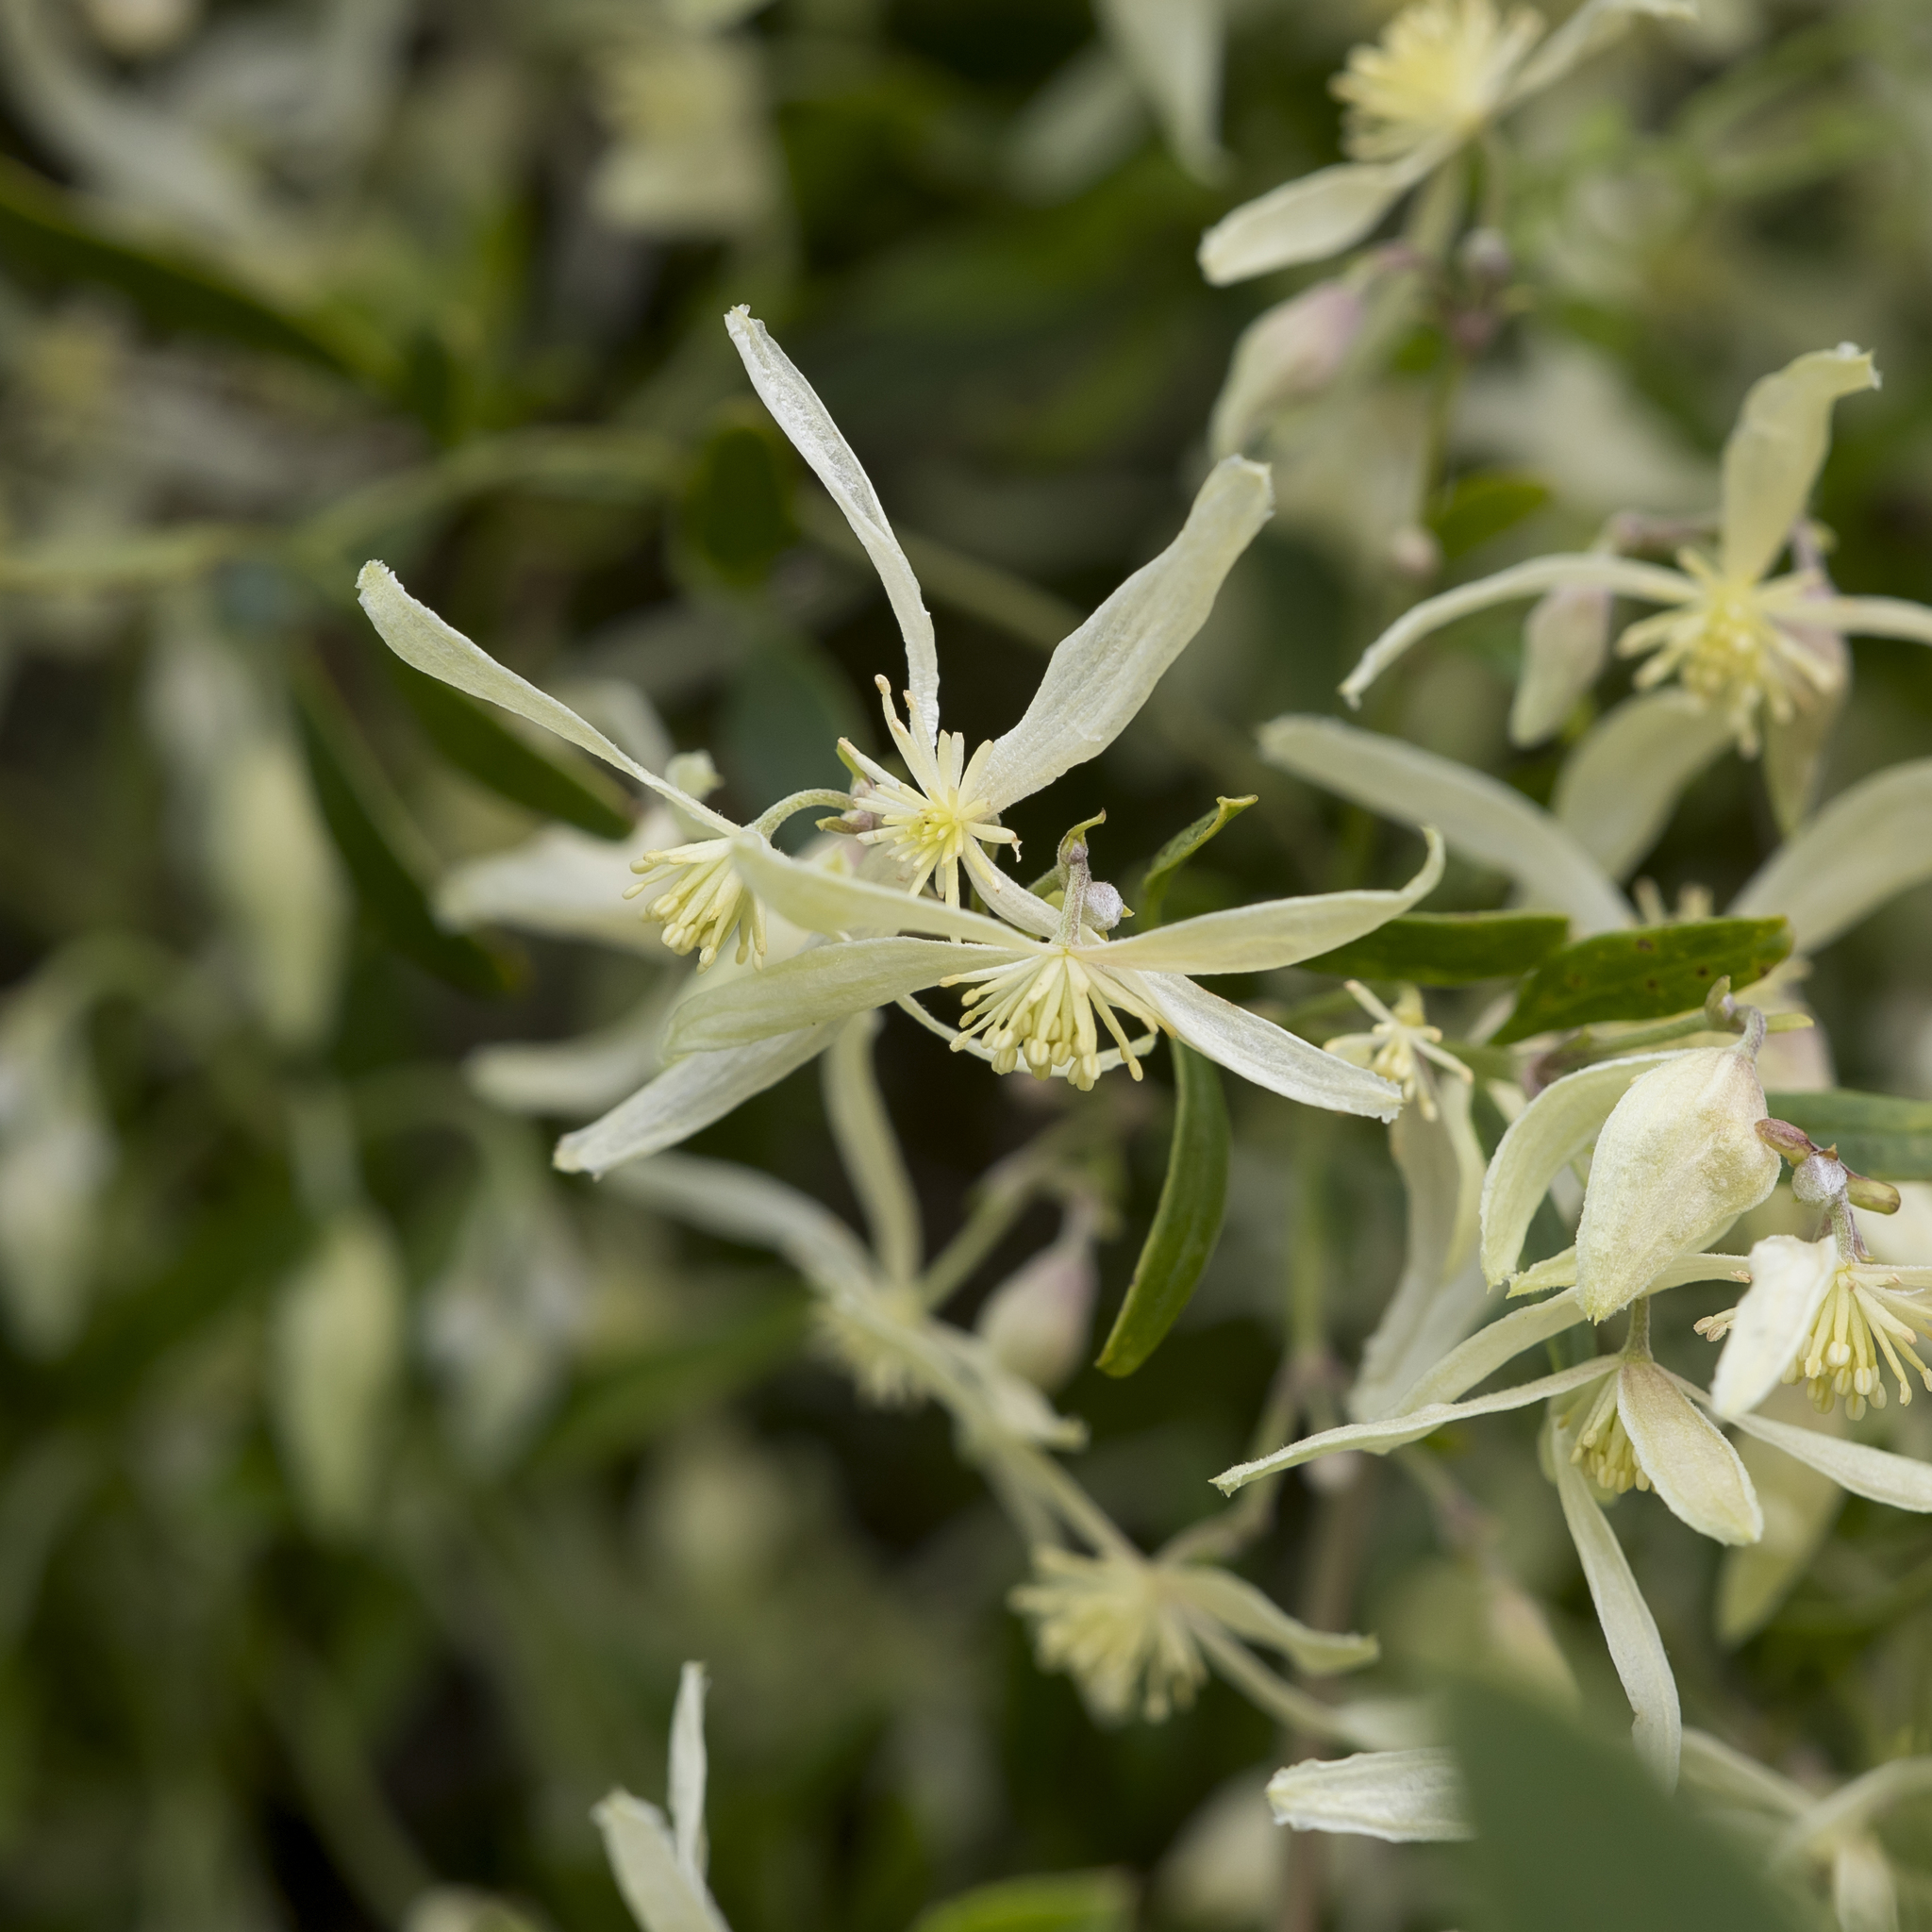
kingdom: Plantae
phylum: Tracheophyta
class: Magnoliopsida
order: Ranunculales
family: Ranunculaceae
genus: Clematis
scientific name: Clematis microphylla
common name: Headachevine
